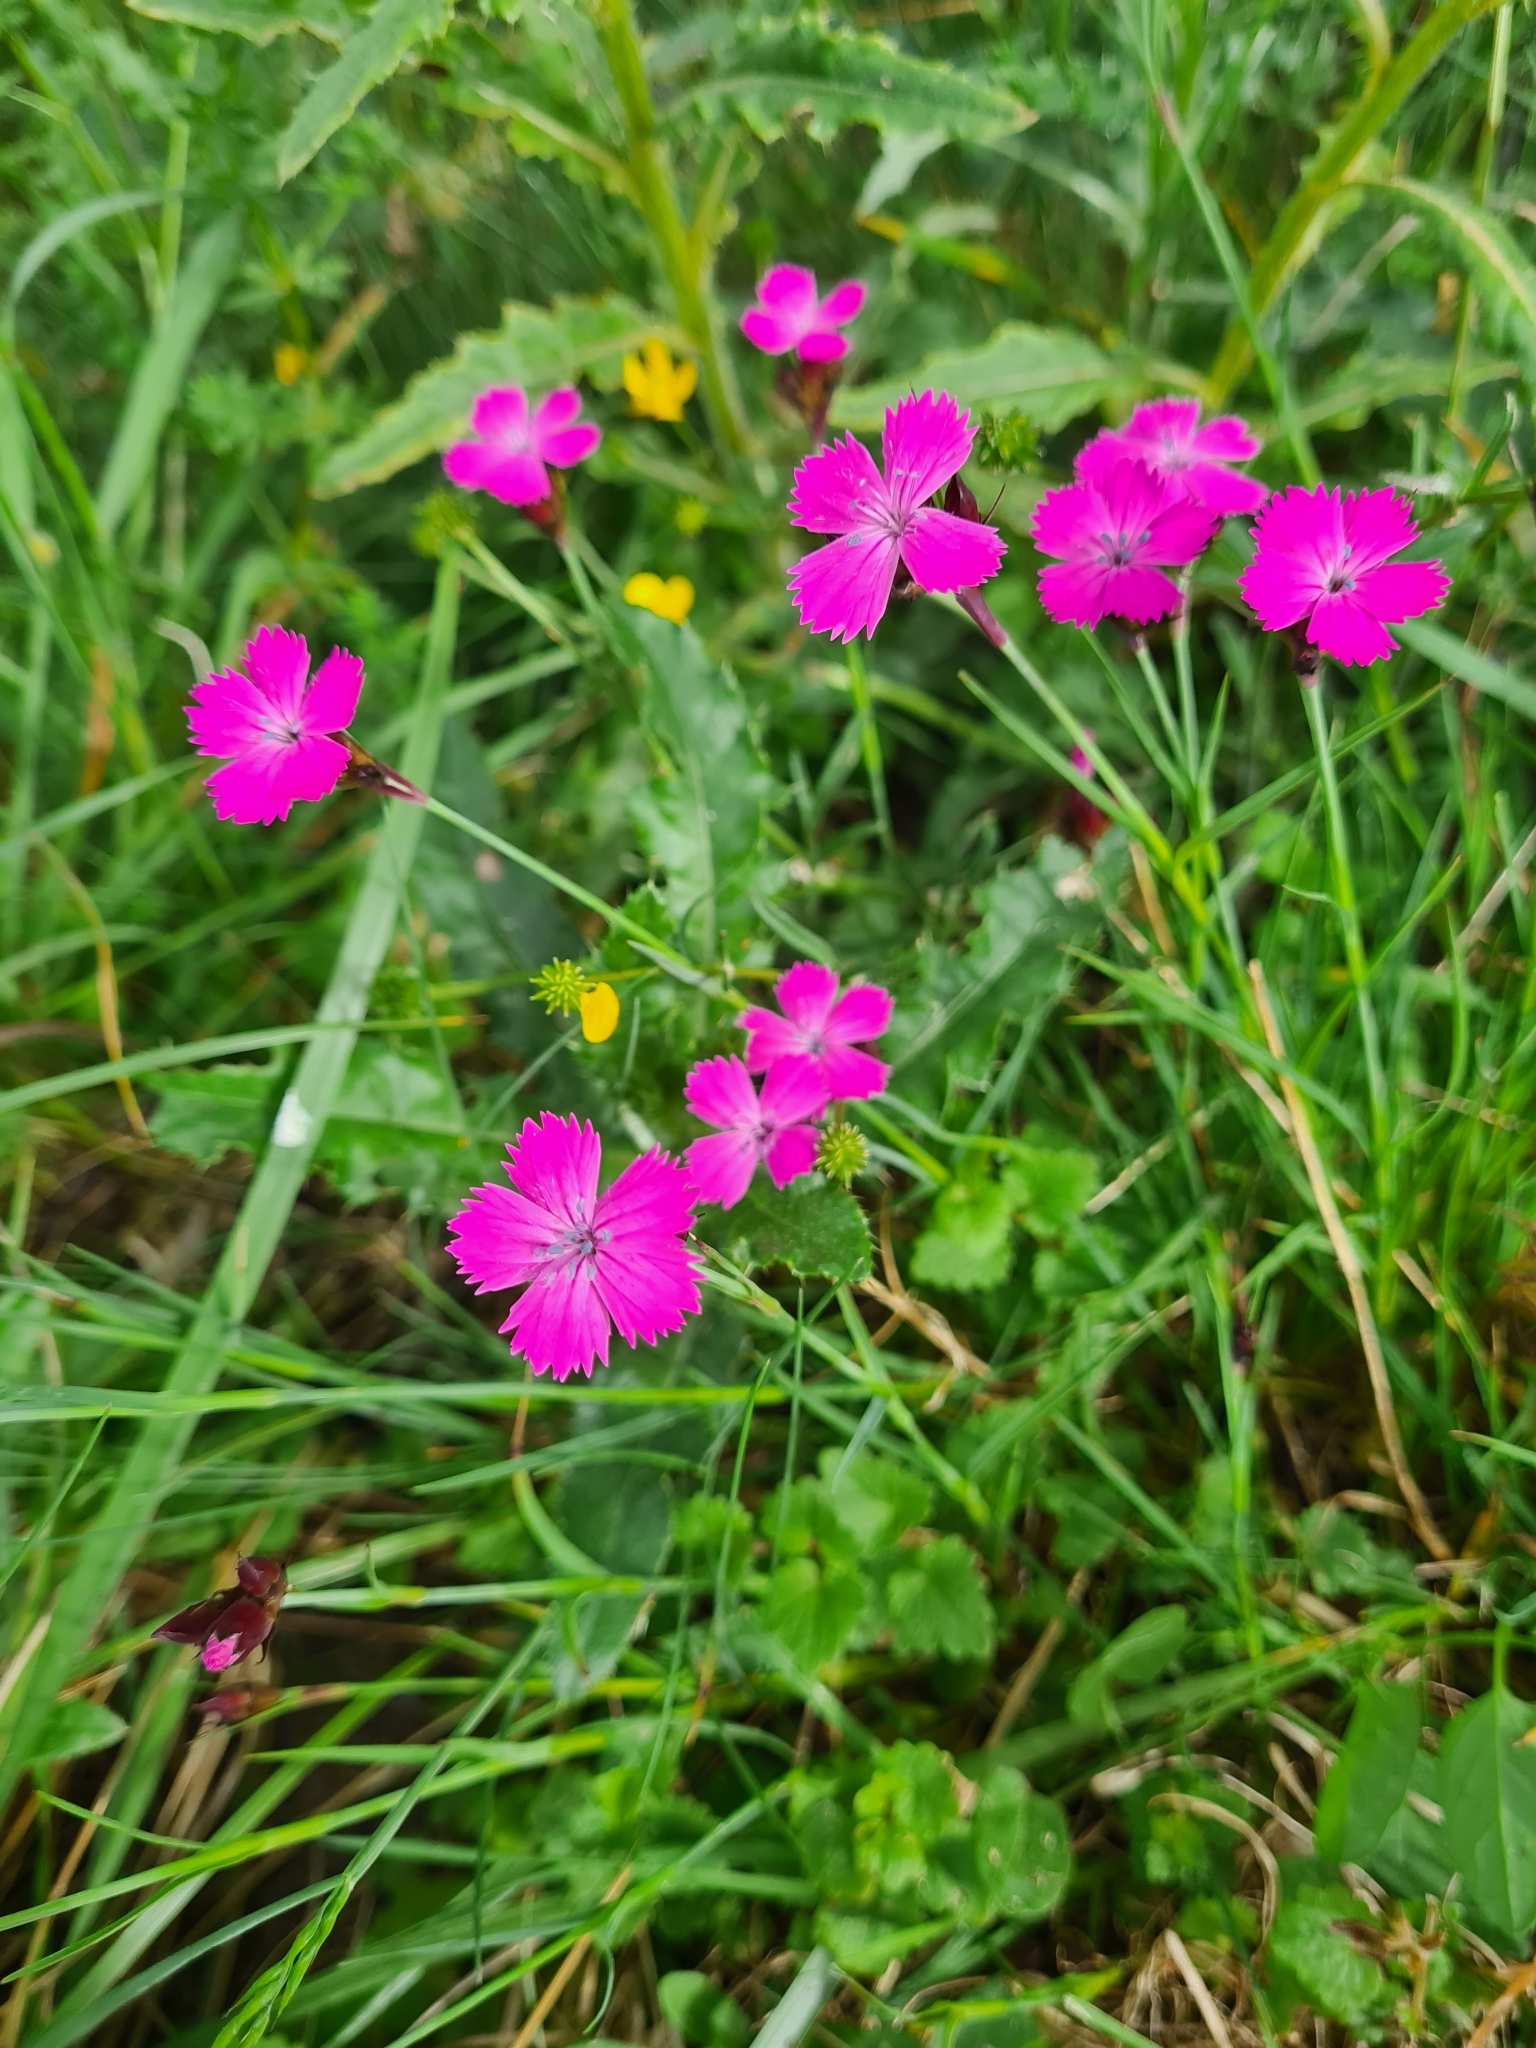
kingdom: Plantae
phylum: Tracheophyta
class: Magnoliopsida
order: Caryophyllales
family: Caryophyllaceae
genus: Dianthus
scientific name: Dianthus carthusianorum
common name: Carthusian pink
